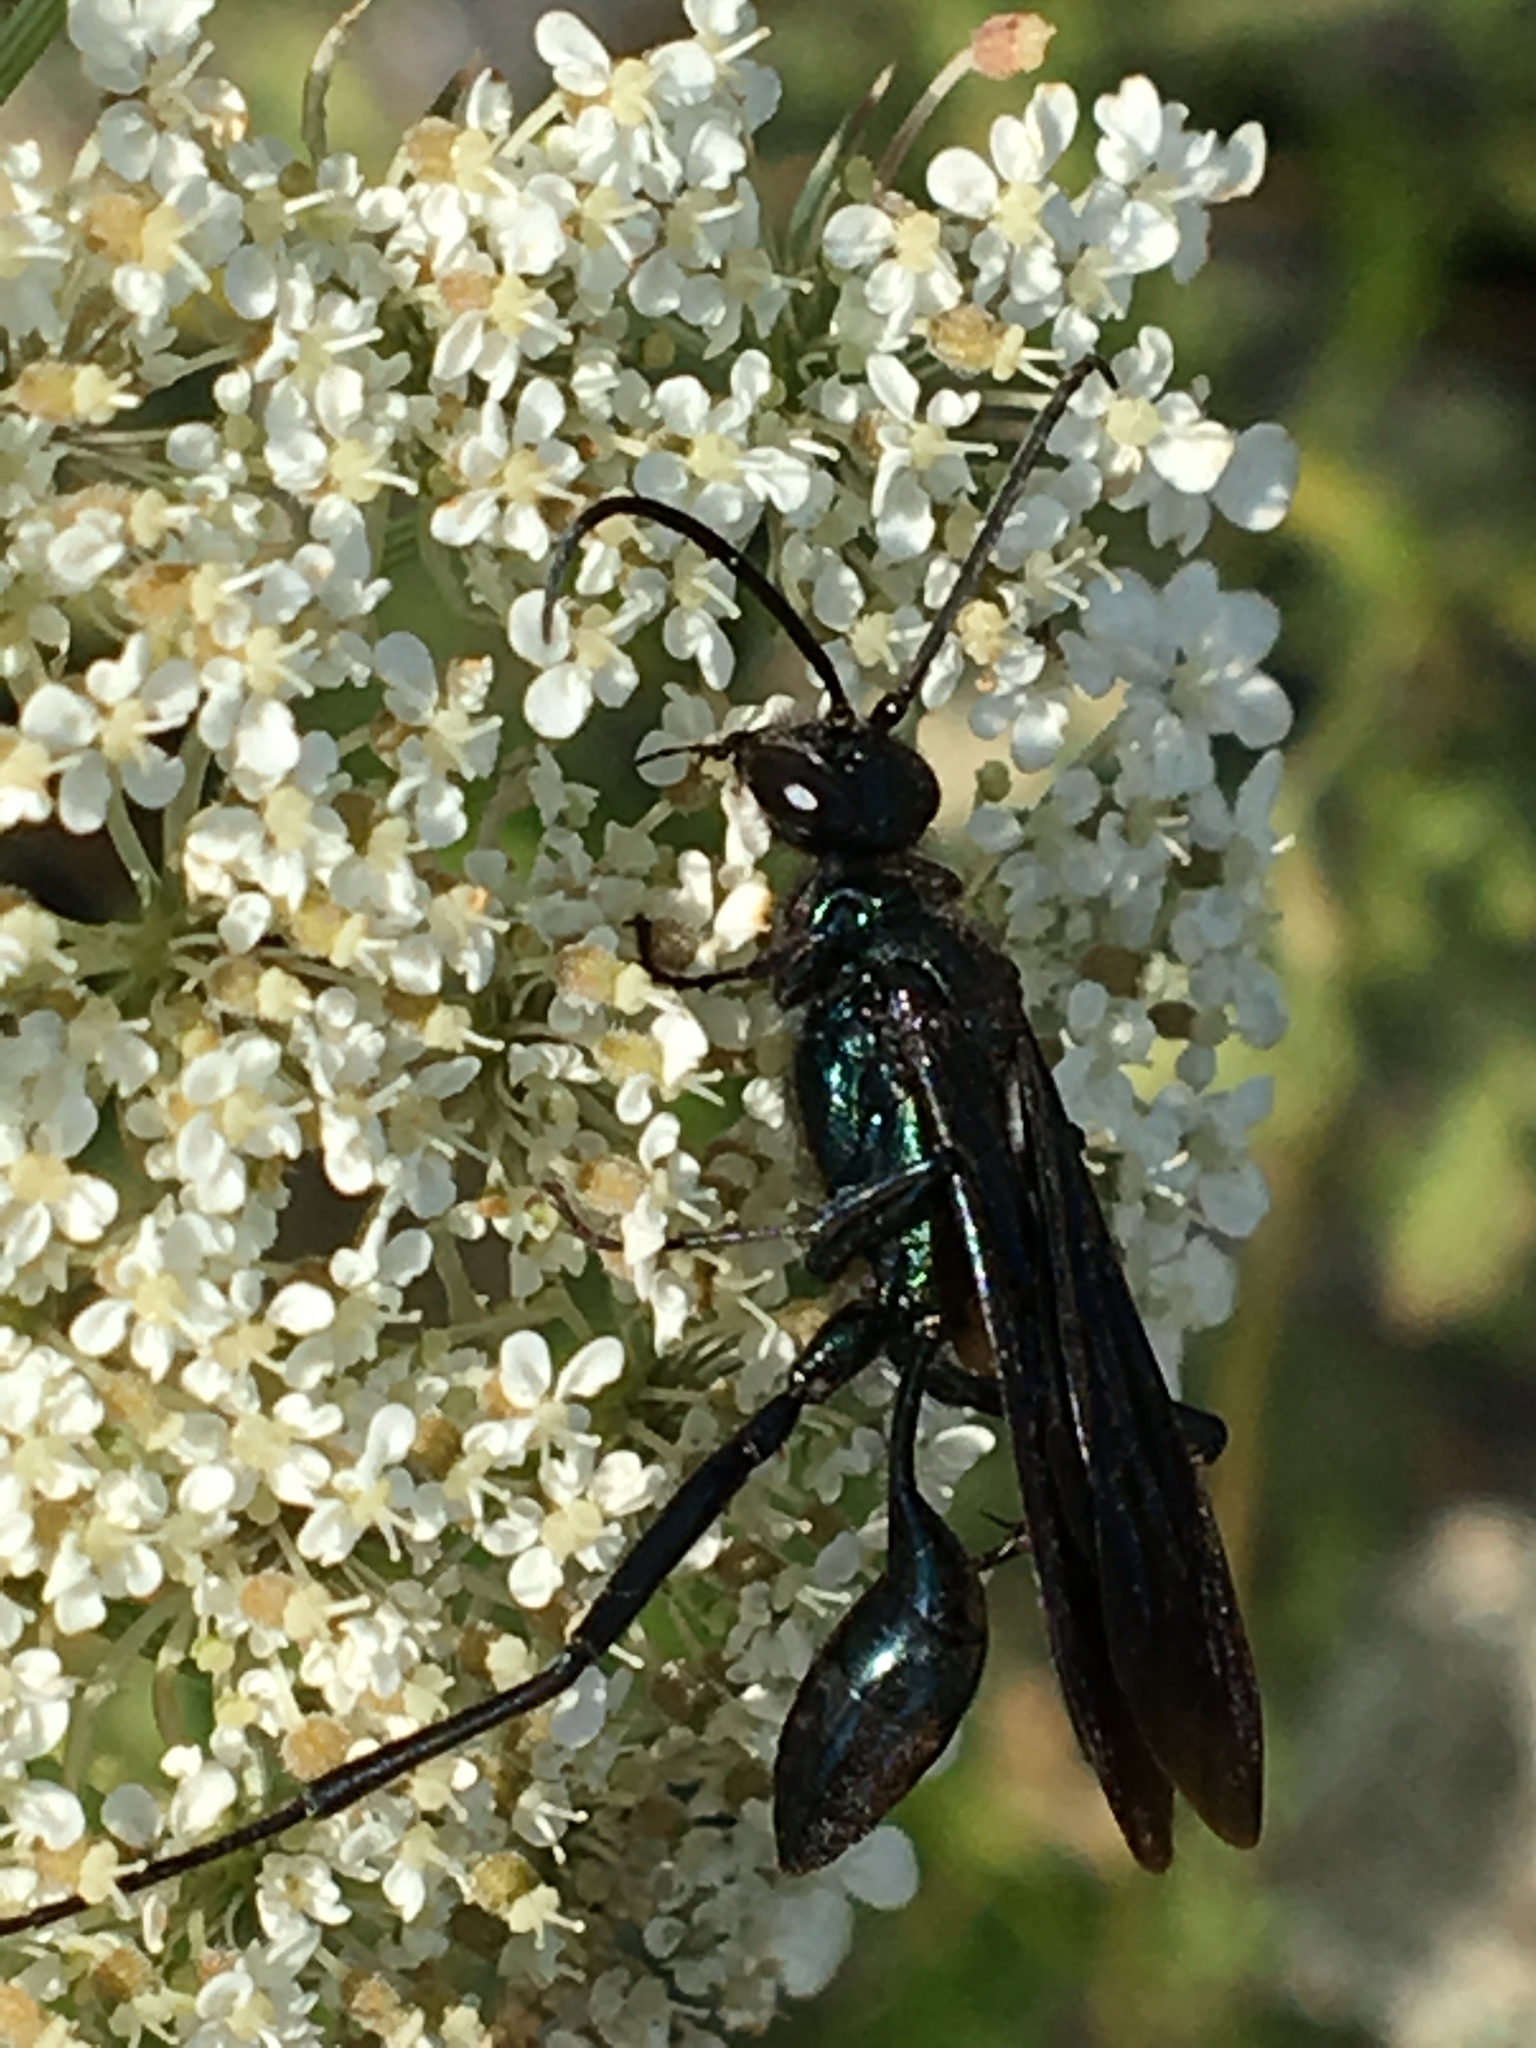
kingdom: Animalia
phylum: Arthropoda
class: Insecta
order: Hymenoptera
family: Sphecidae
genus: Chalybion
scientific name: Chalybion californicum
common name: Mud dauber
